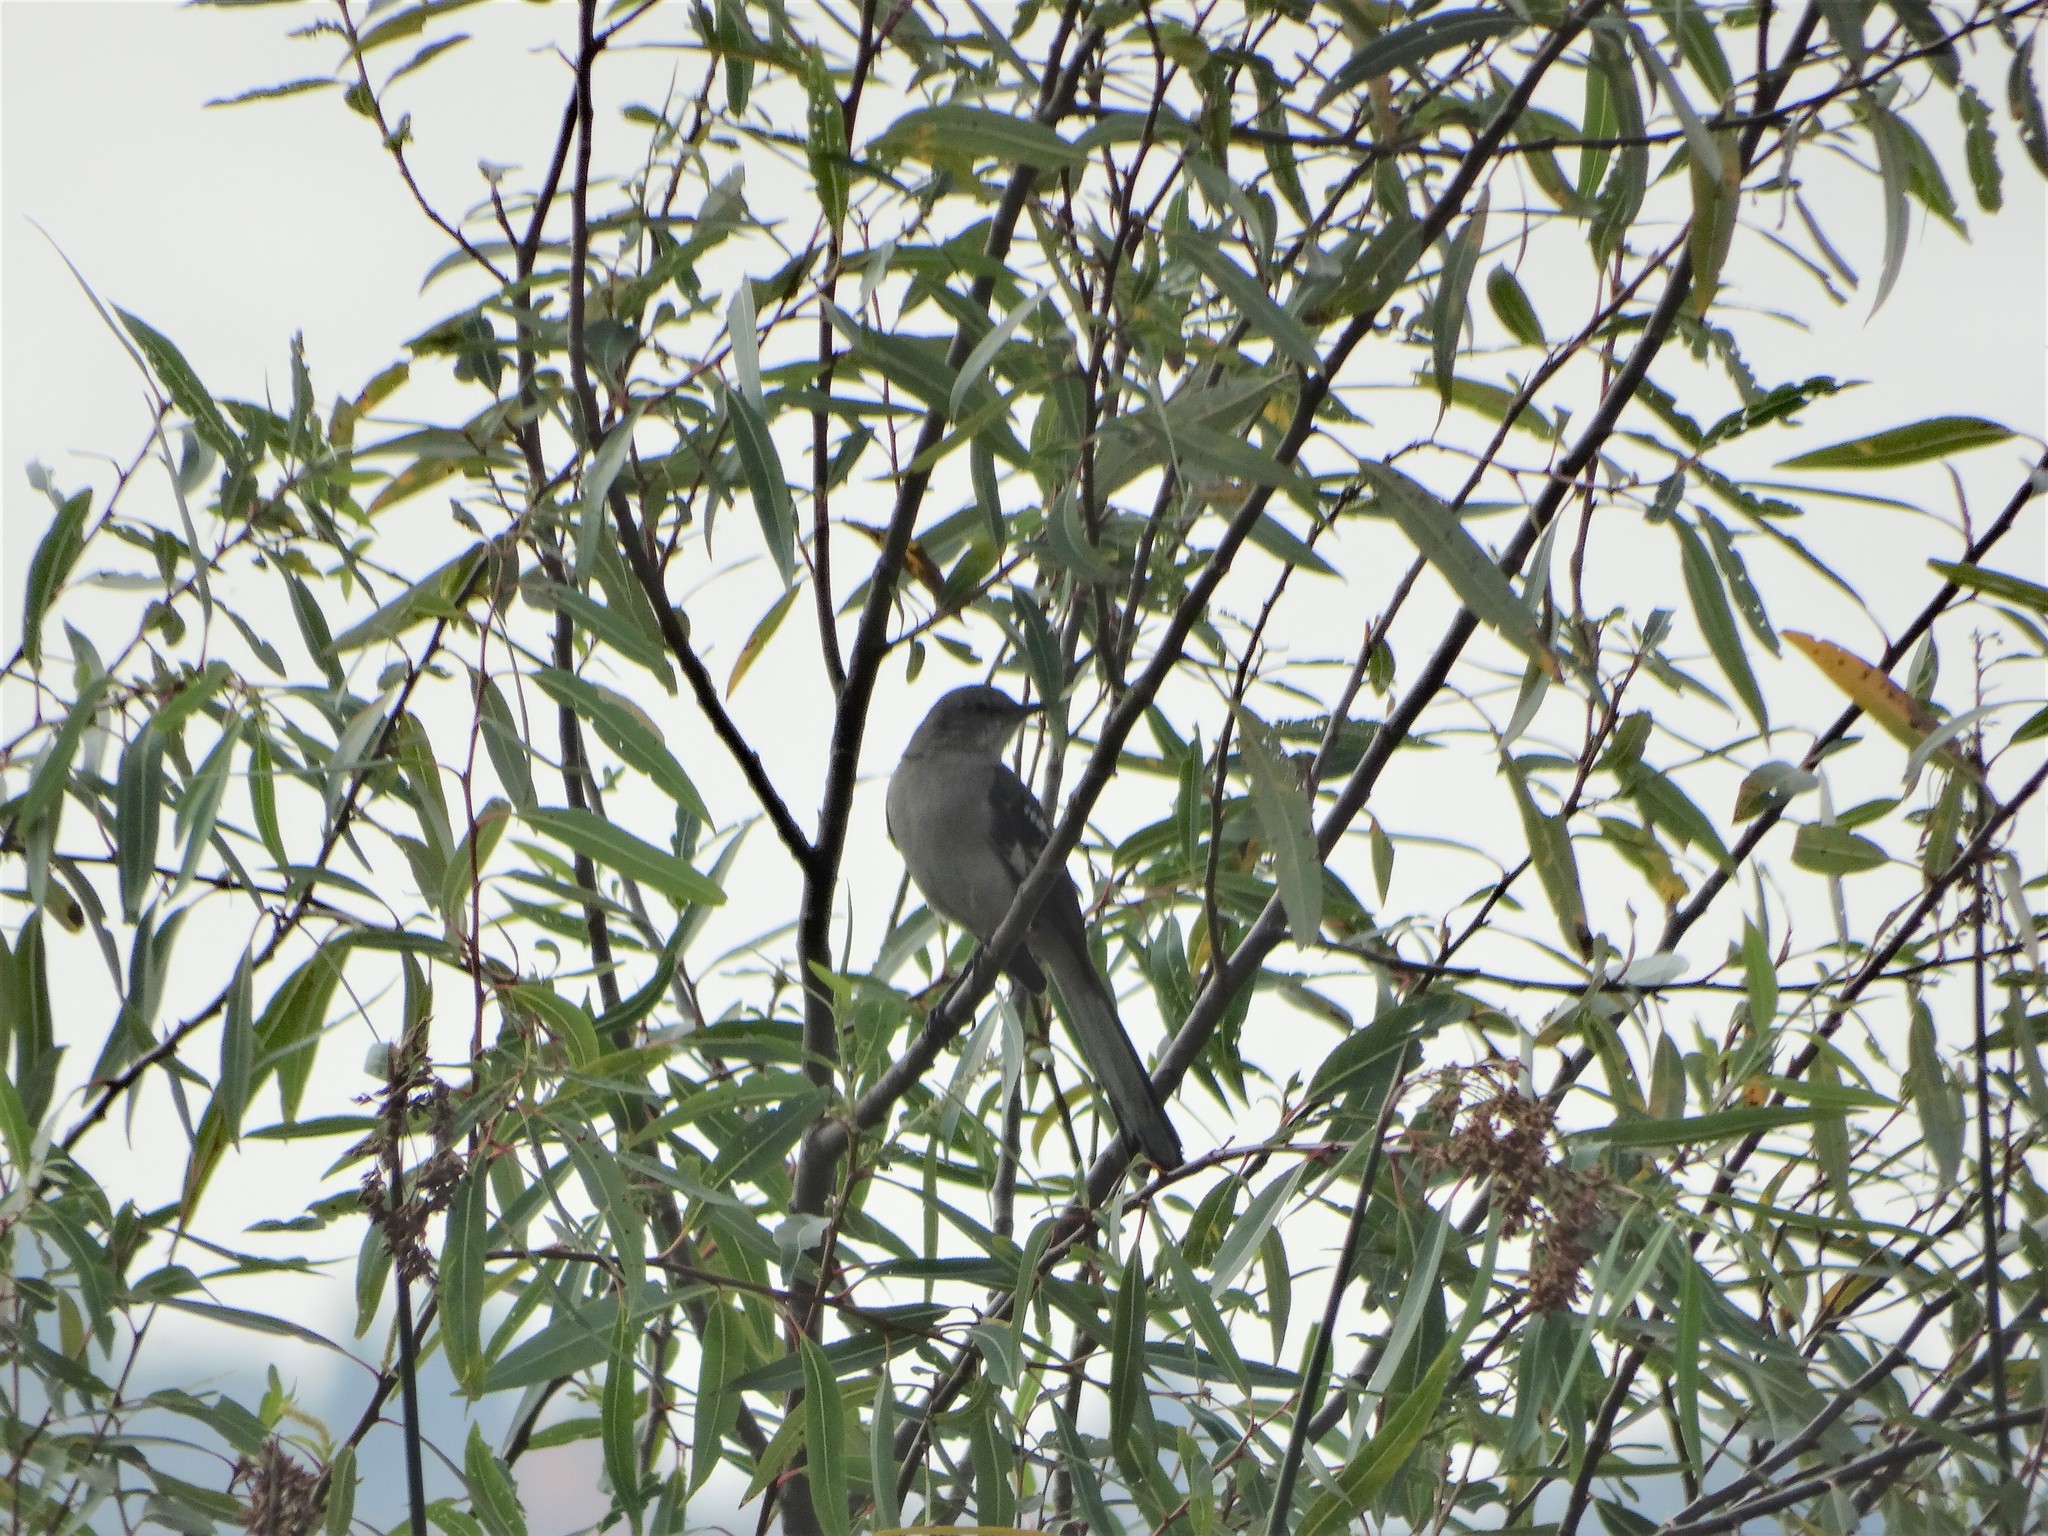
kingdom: Animalia
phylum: Chordata
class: Aves
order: Passeriformes
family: Mimidae
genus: Mimus
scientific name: Mimus polyglottos
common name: Northern mockingbird
